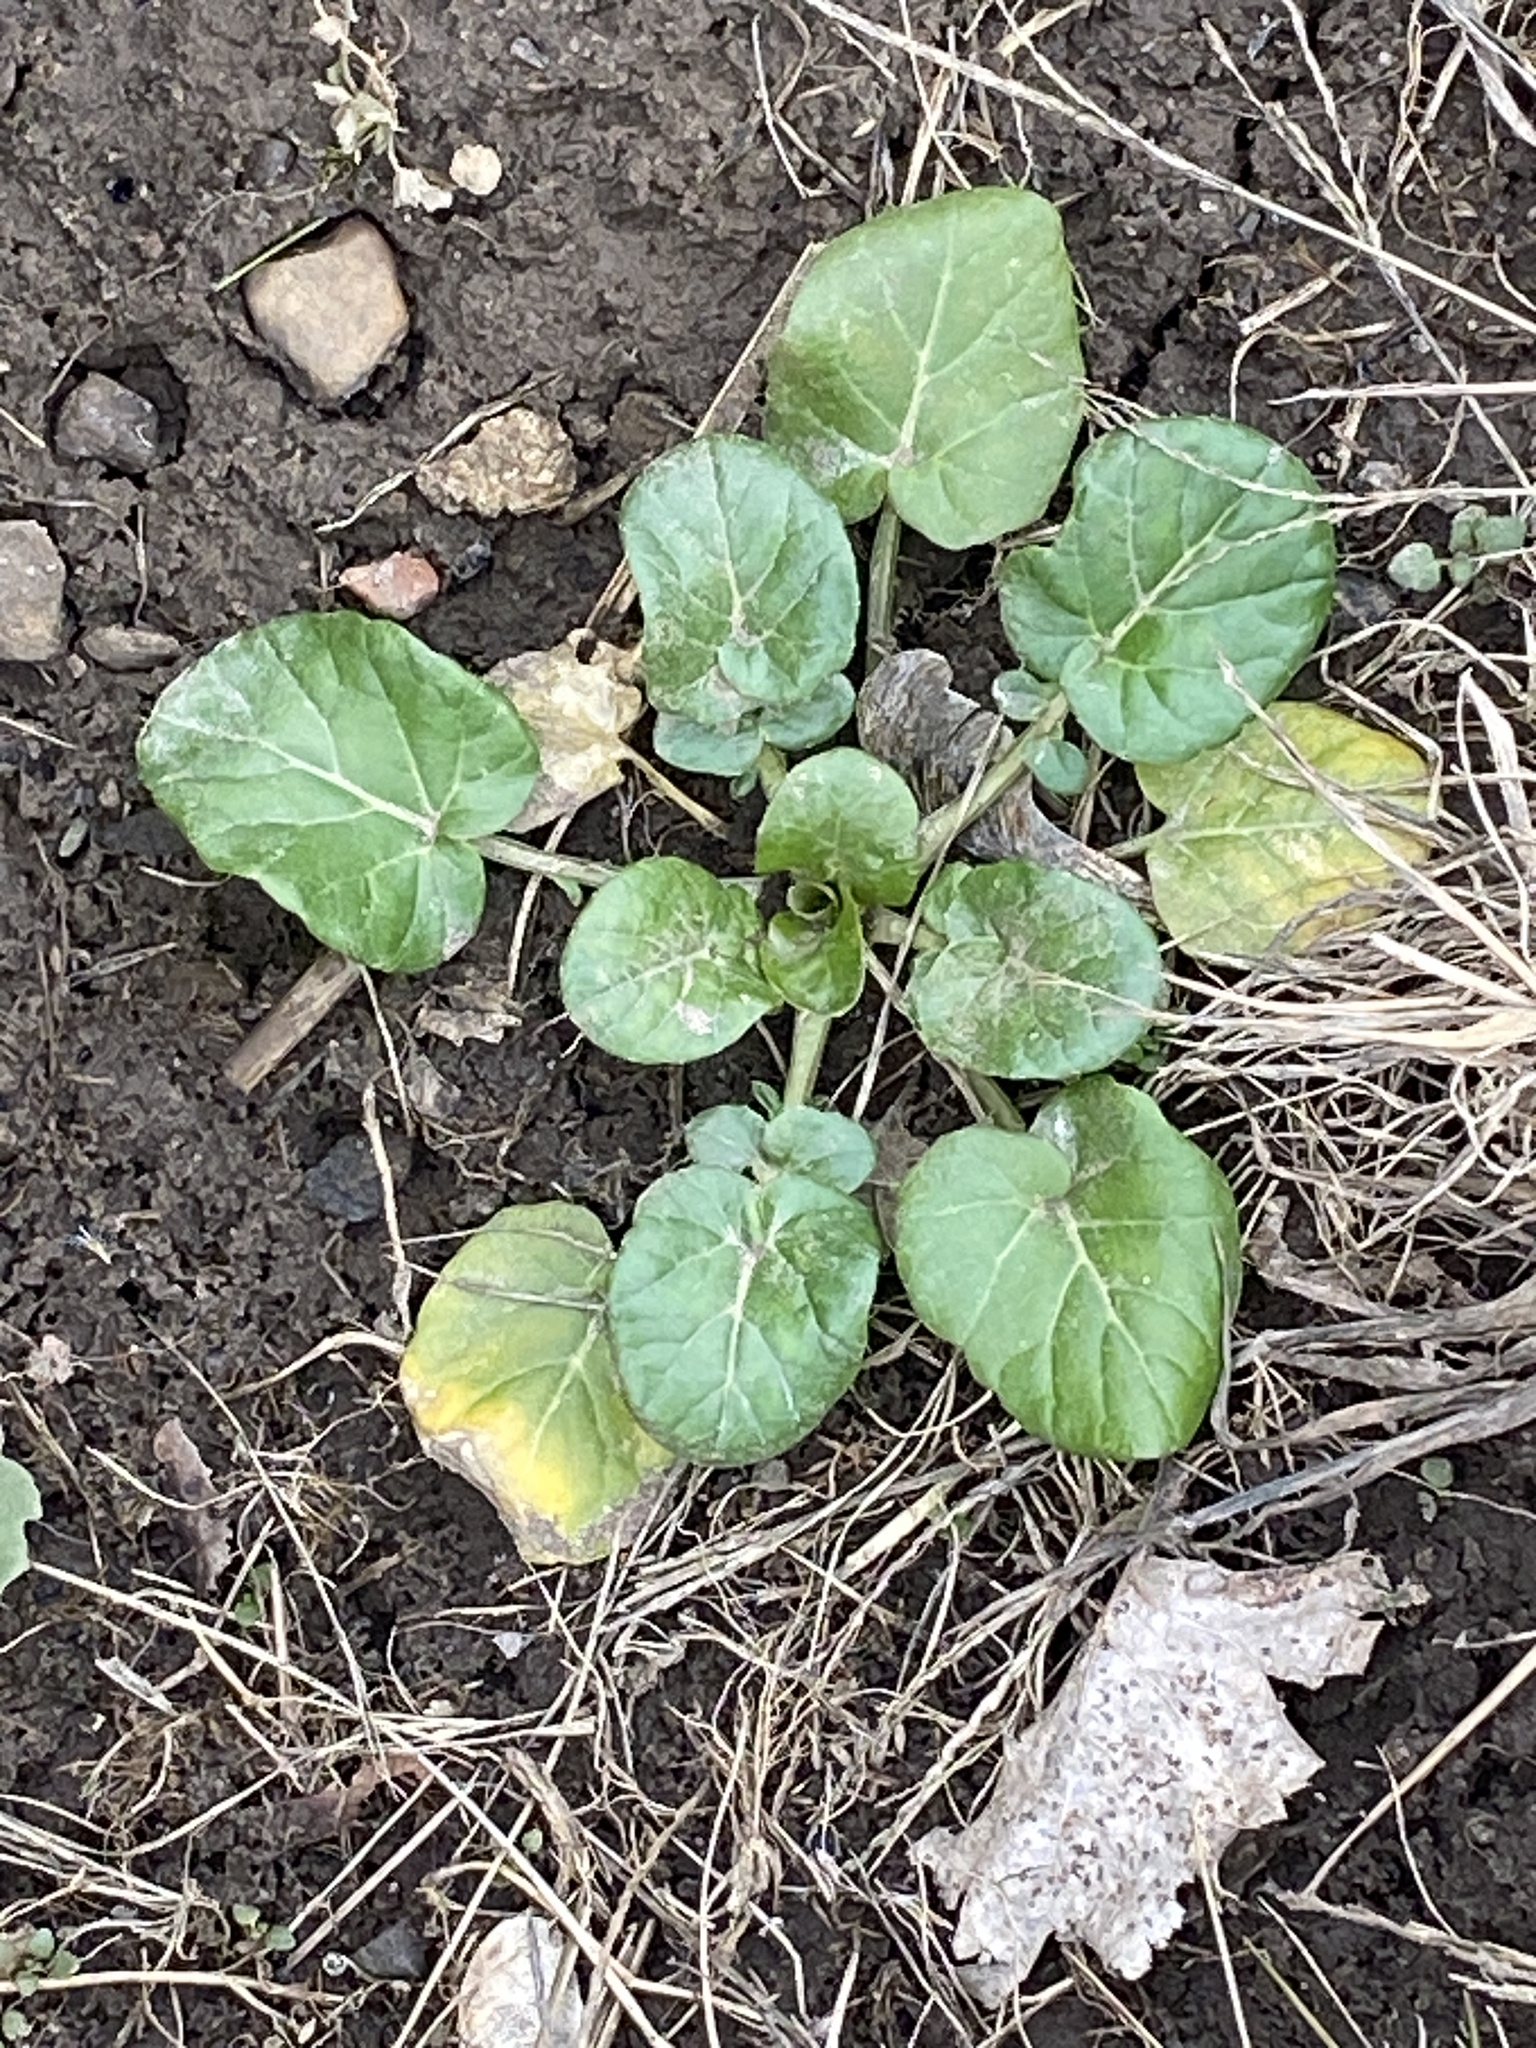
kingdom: Plantae
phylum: Tracheophyta
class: Magnoliopsida
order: Brassicales
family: Brassicaceae
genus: Barbarea
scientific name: Barbarea vulgaris
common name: Cressy-greens
